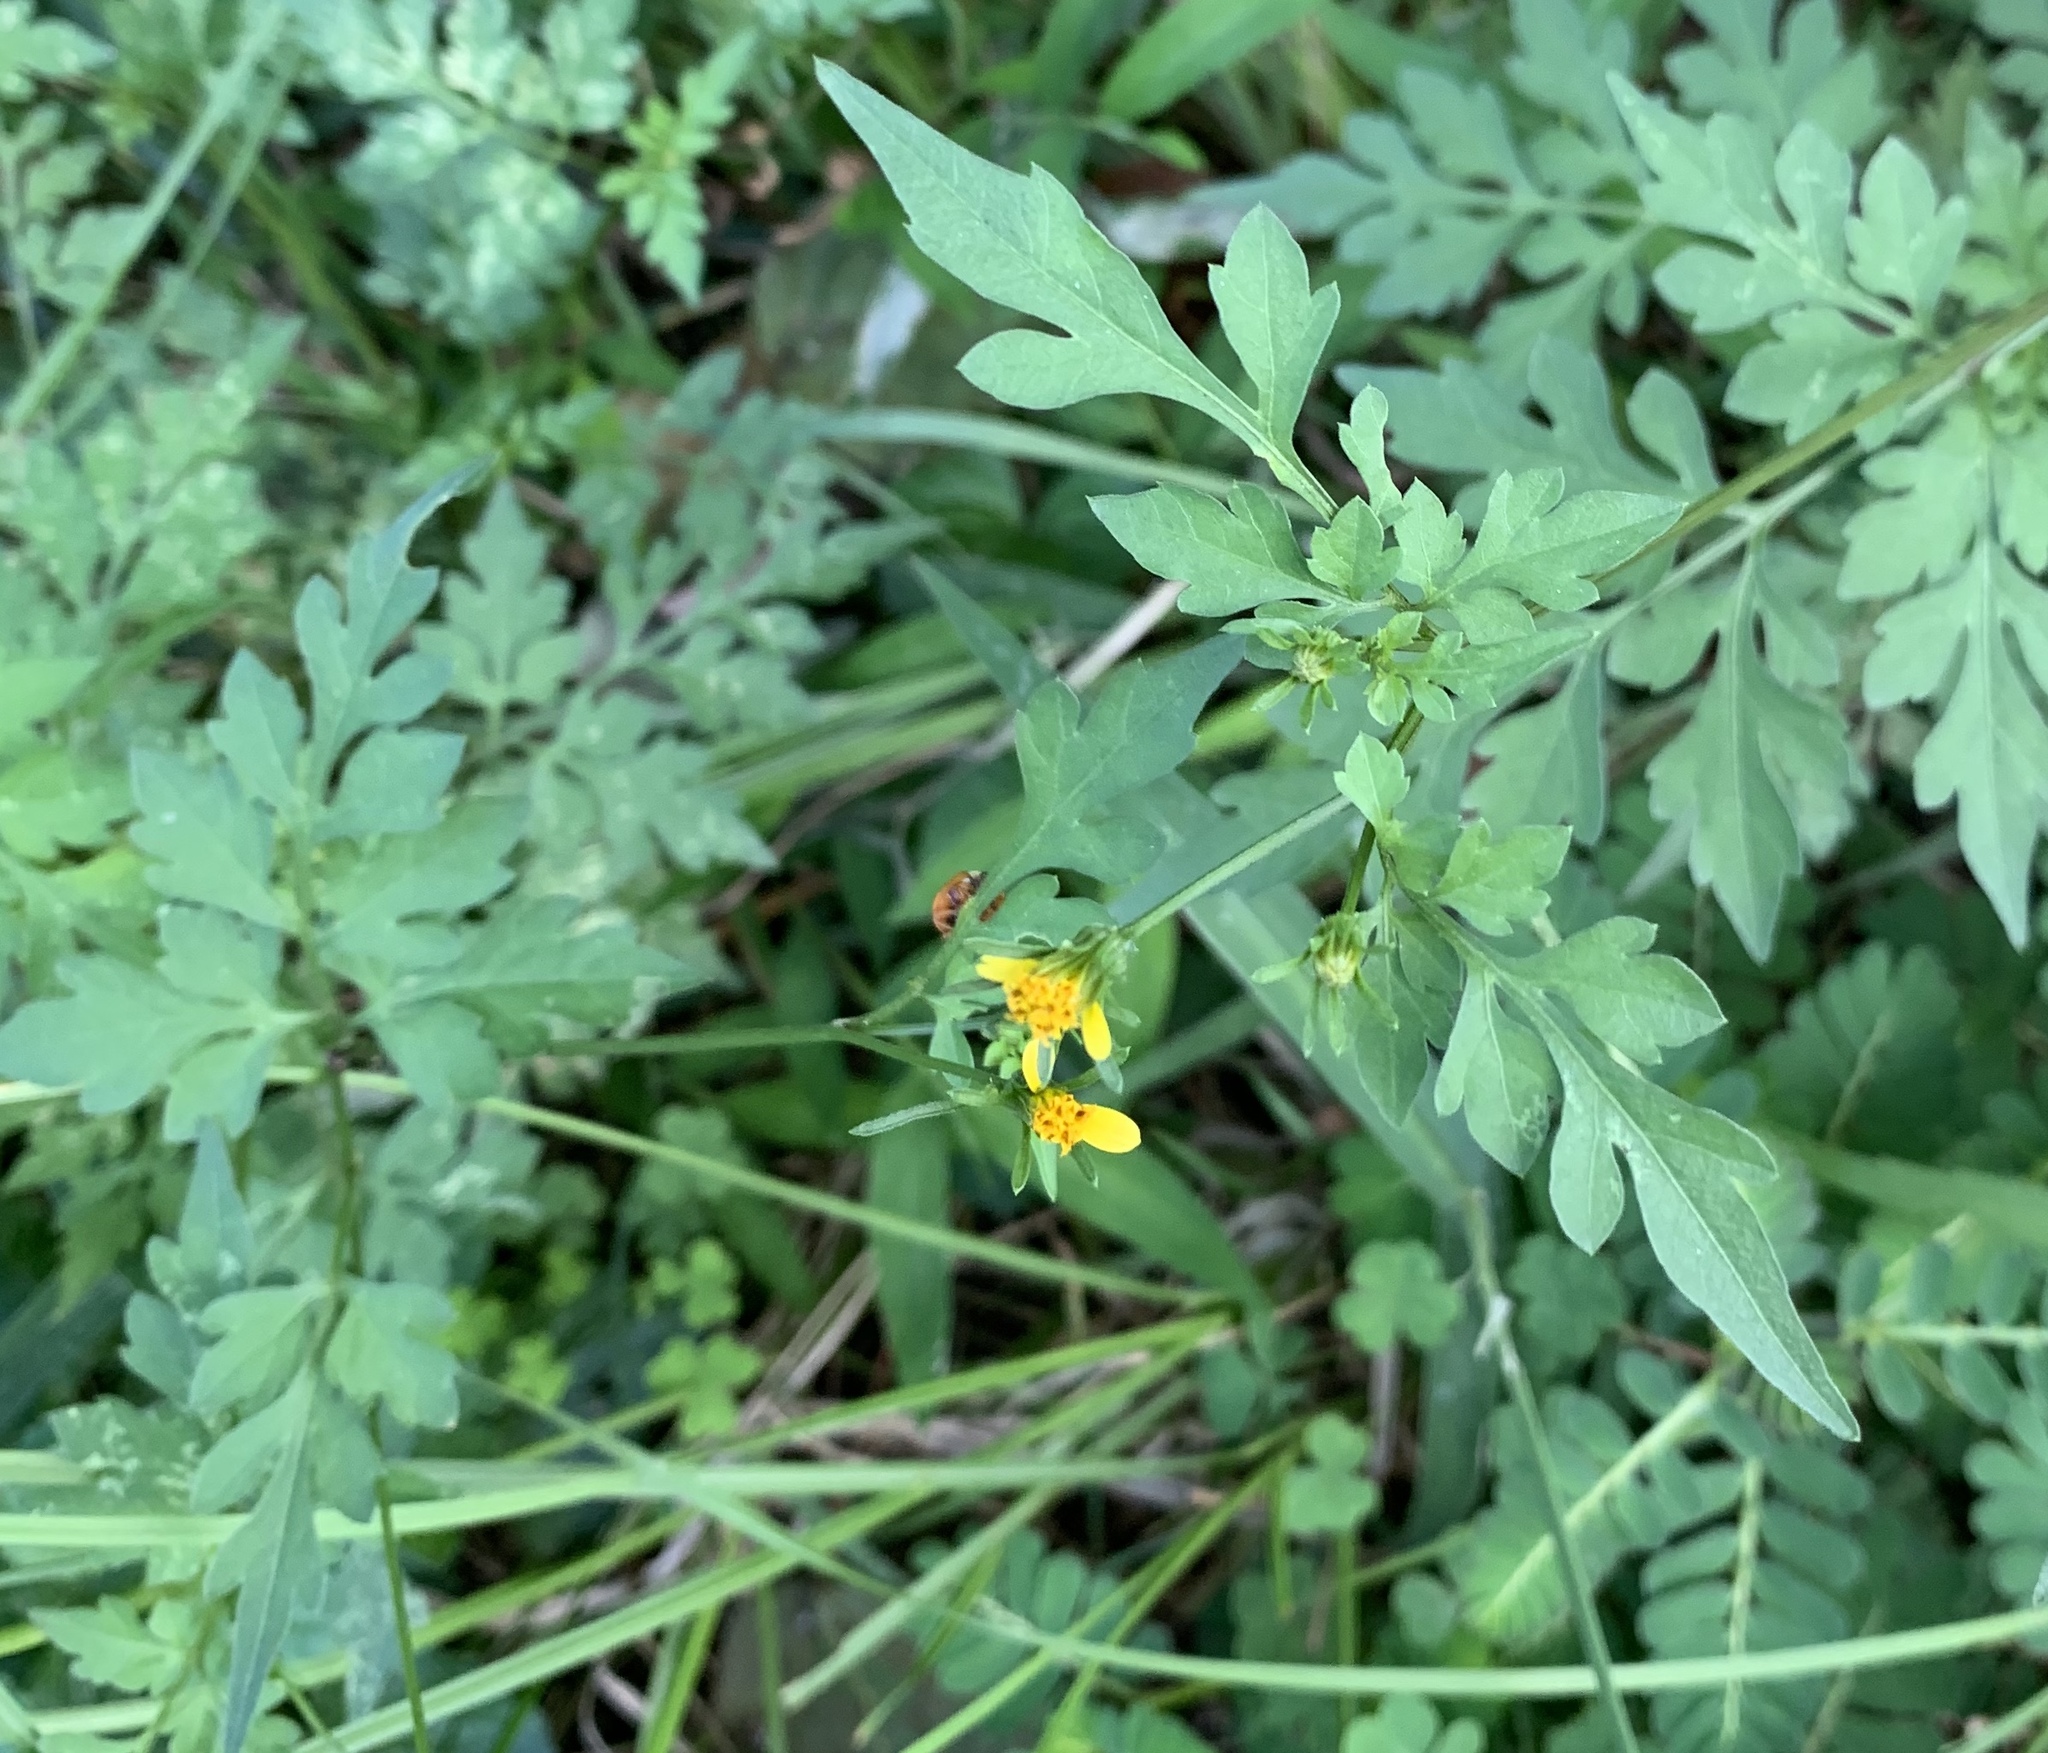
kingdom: Plantae
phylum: Tracheophyta
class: Magnoliopsida
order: Asterales
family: Asteraceae
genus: Bidens
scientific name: Bidens bipinnata
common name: Spanish-needles
